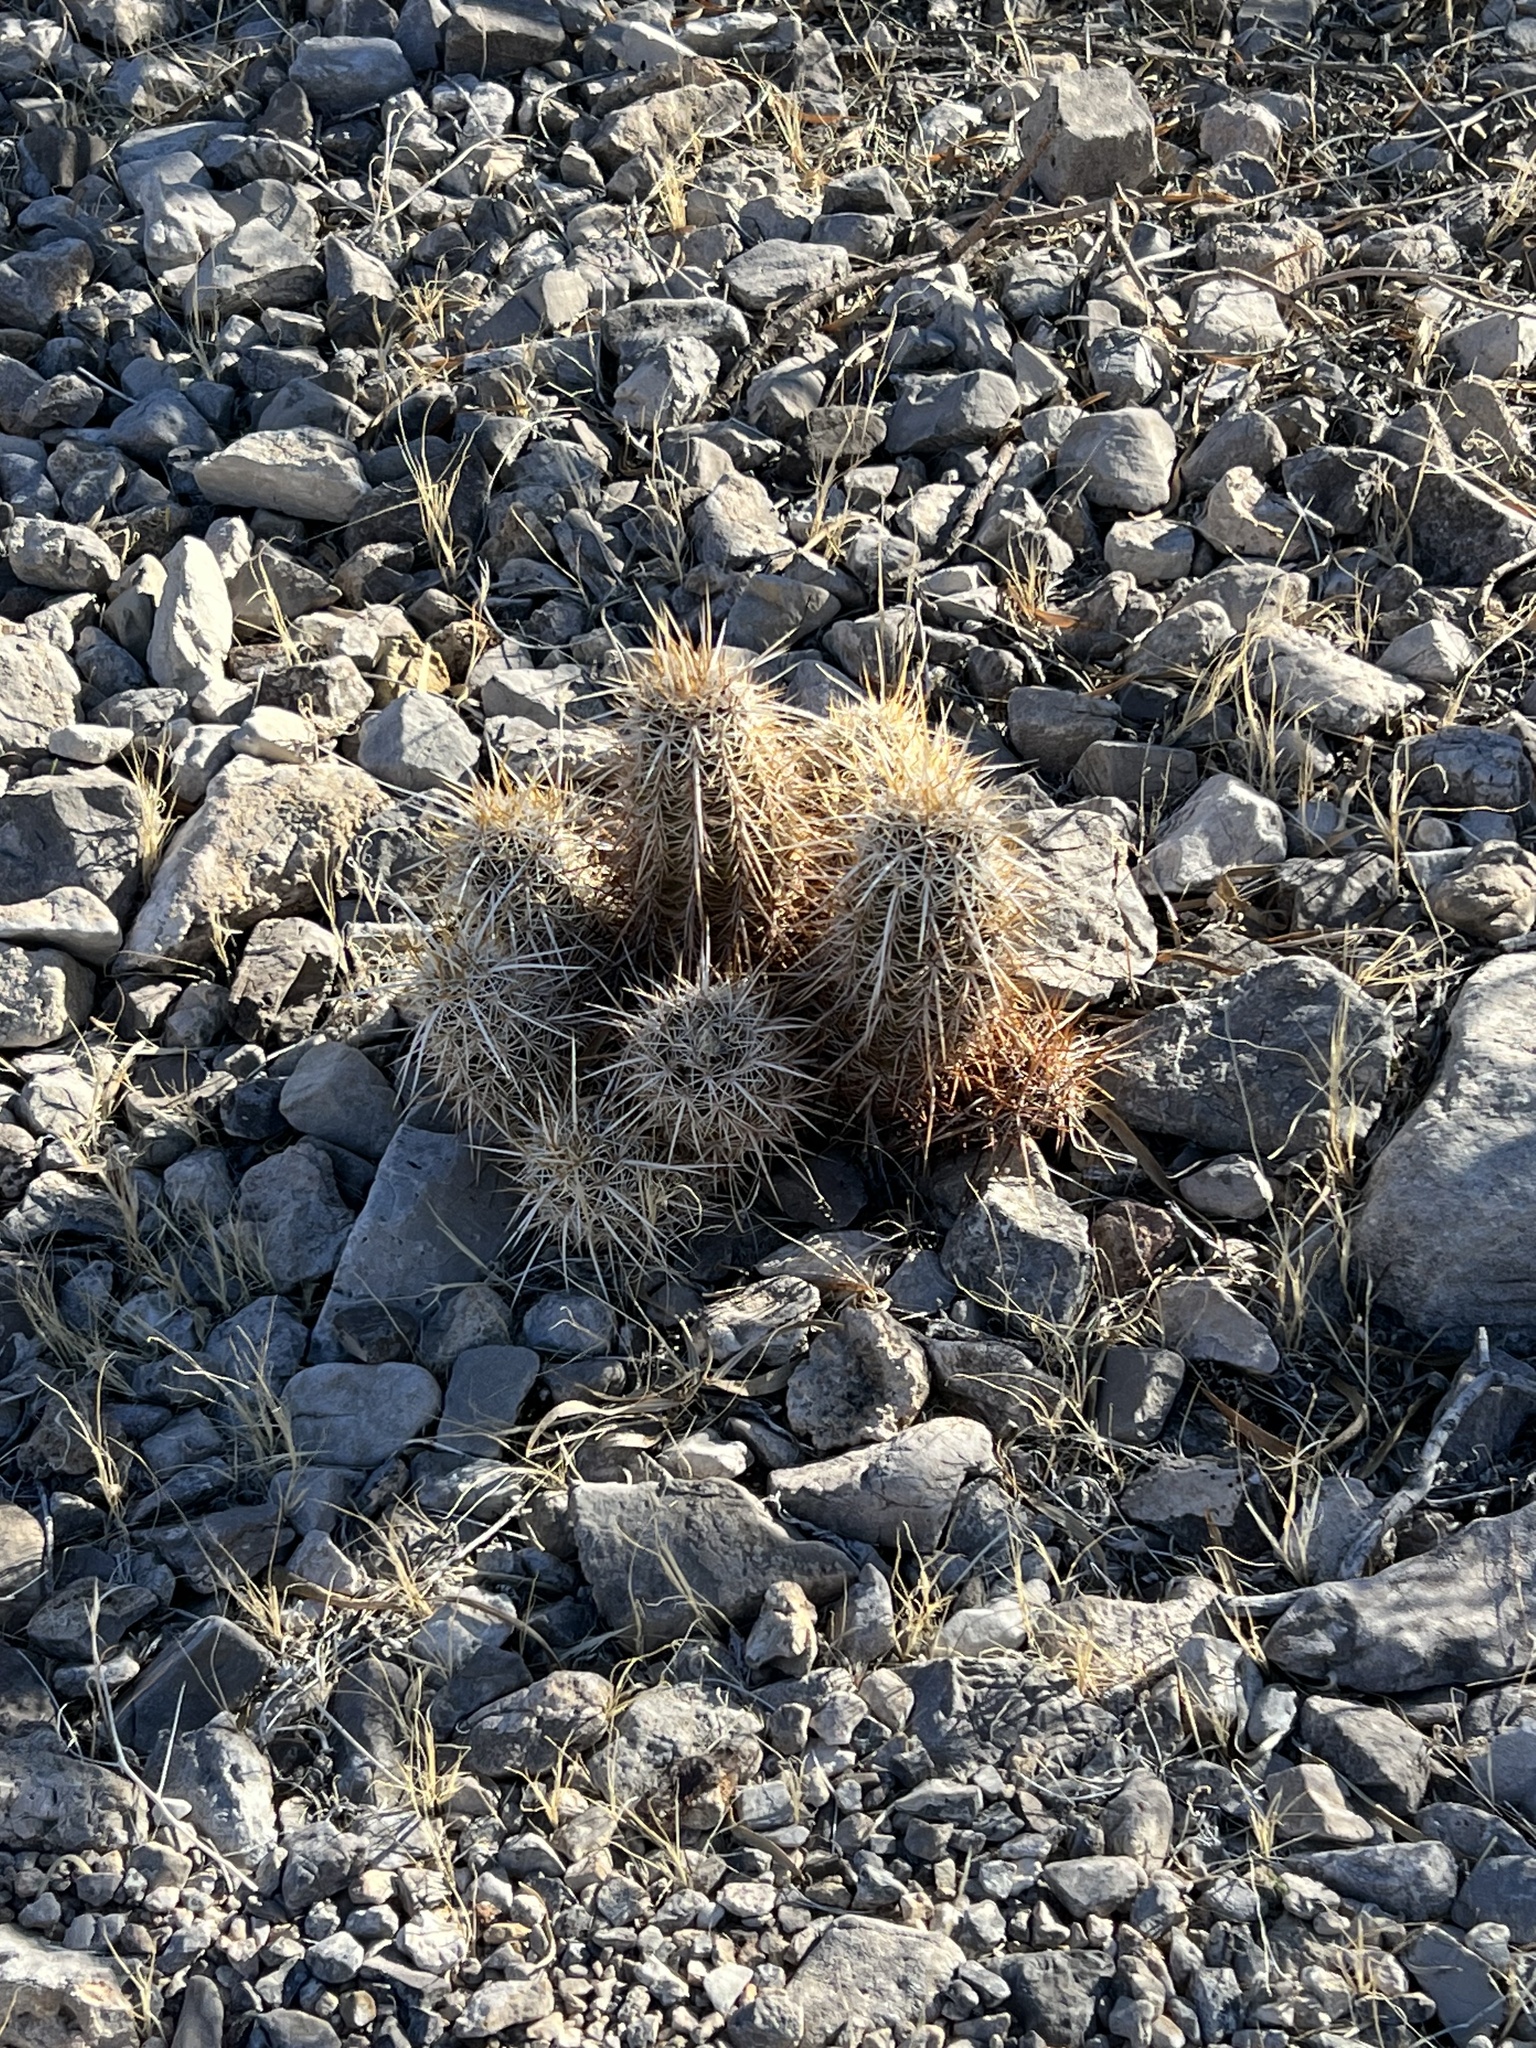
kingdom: Plantae
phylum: Tracheophyta
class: Magnoliopsida
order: Caryophyllales
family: Cactaceae
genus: Echinocereus
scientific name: Echinocereus engelmannii
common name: Engelmann's hedgehog cactus
